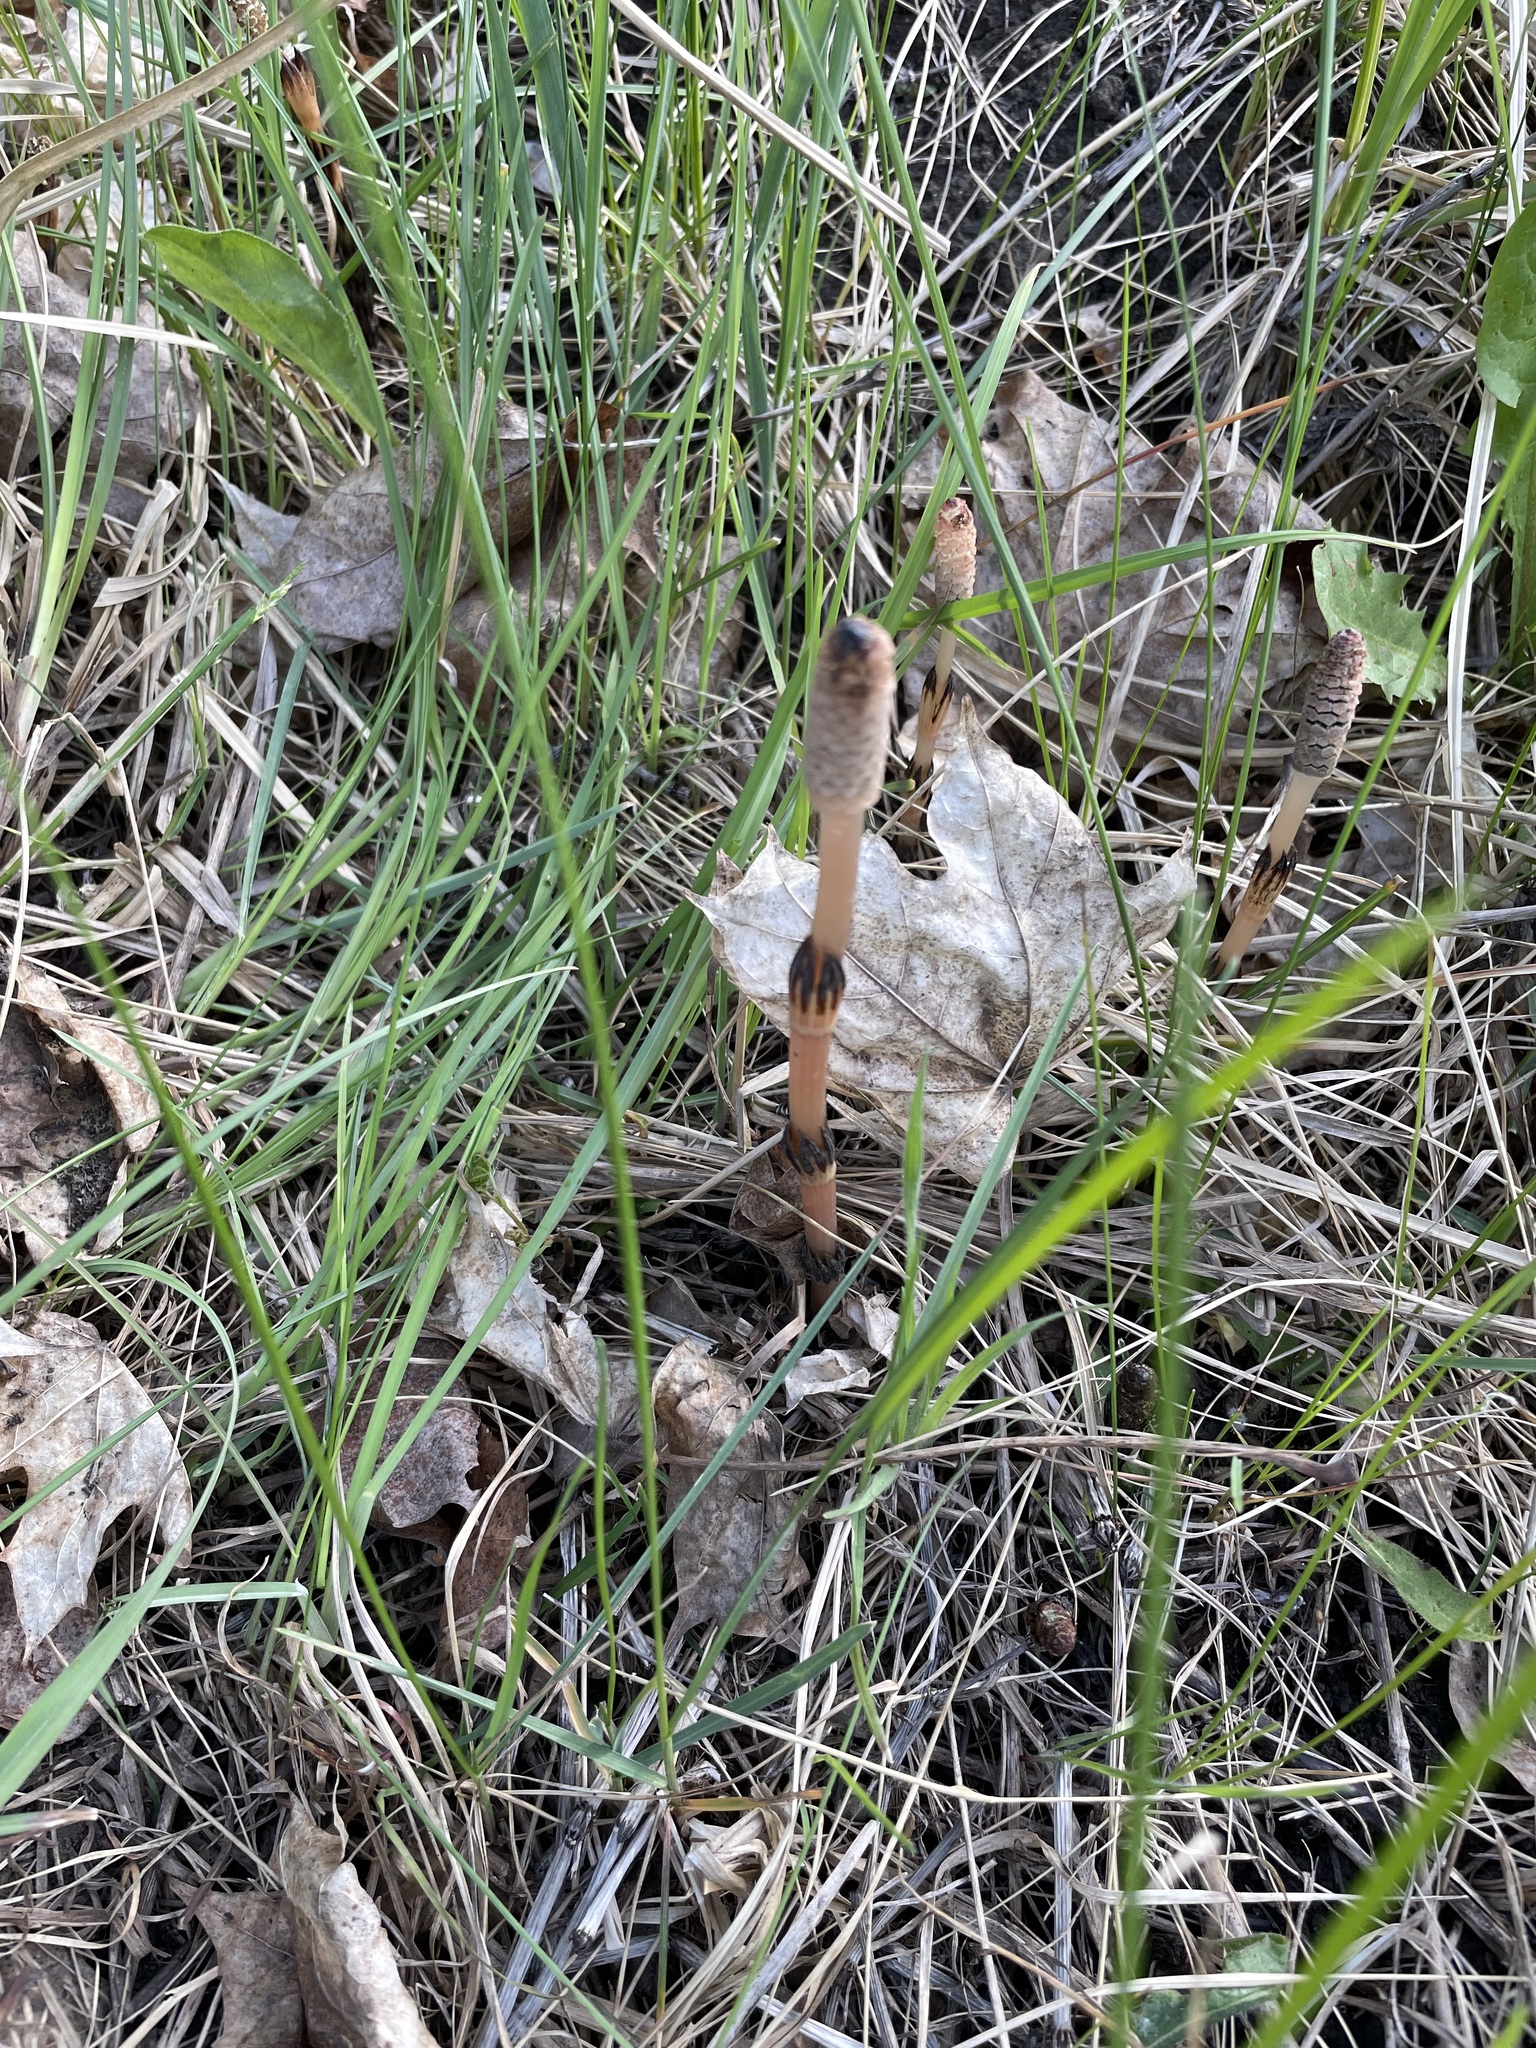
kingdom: Plantae
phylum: Tracheophyta
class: Polypodiopsida
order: Equisetales
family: Equisetaceae
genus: Equisetum
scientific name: Equisetum arvense
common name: Field horsetail
